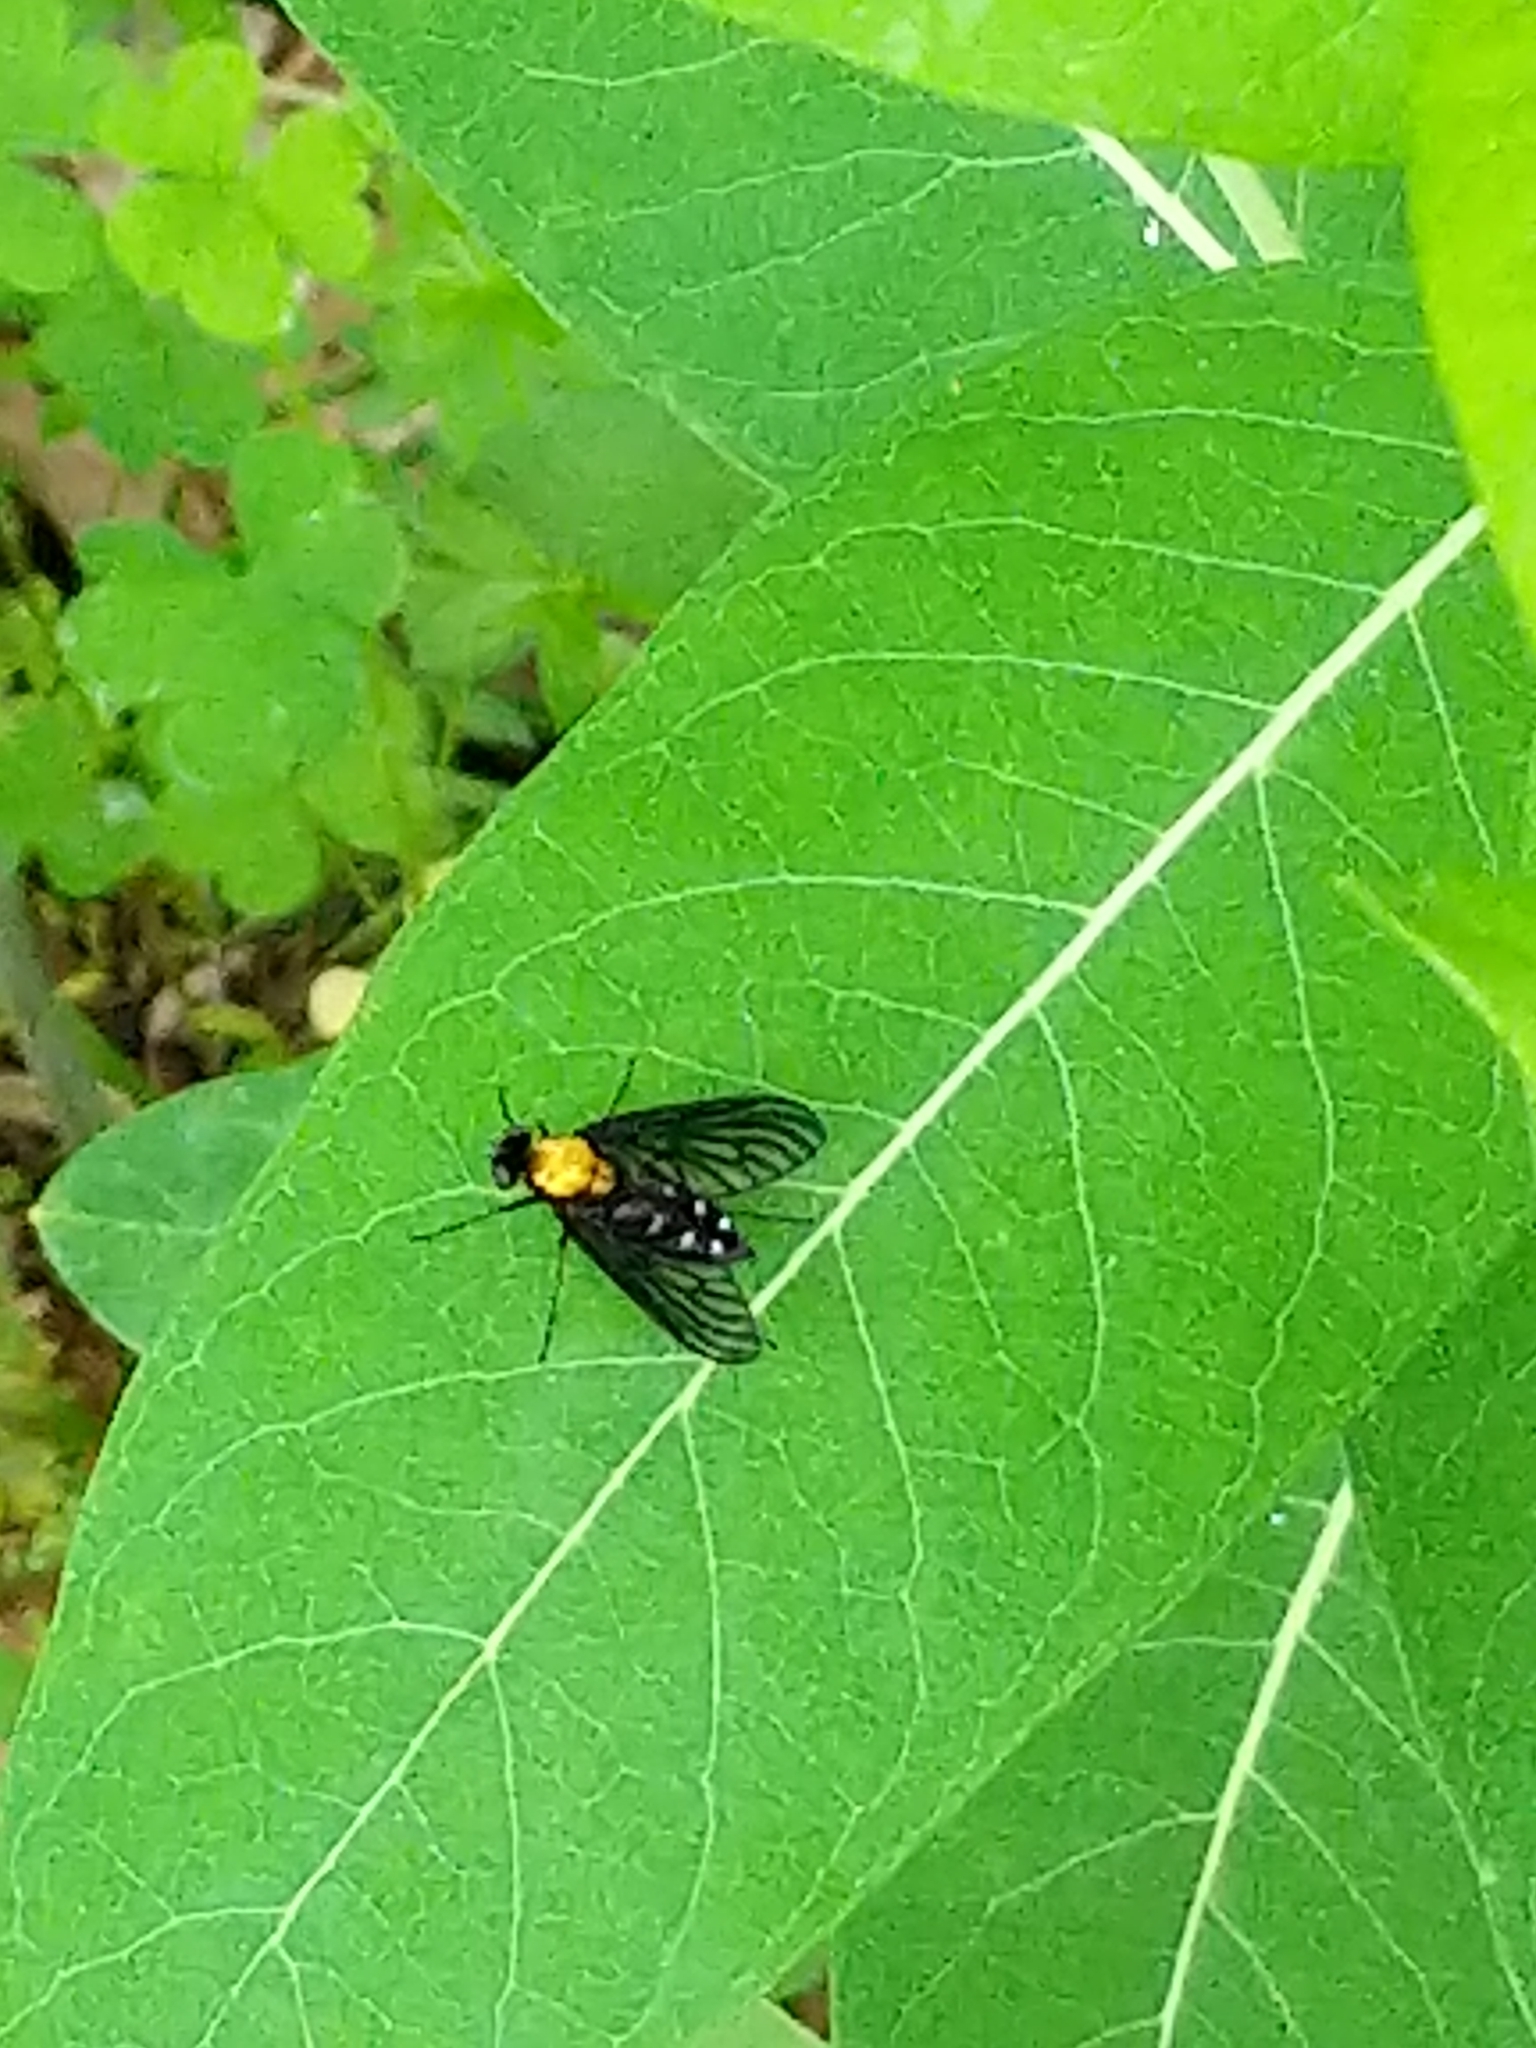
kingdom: Animalia
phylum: Arthropoda
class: Insecta
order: Diptera
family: Rhagionidae
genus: Chrysopilus
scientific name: Chrysopilus thoracicus
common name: Golden-backed snipe fly
